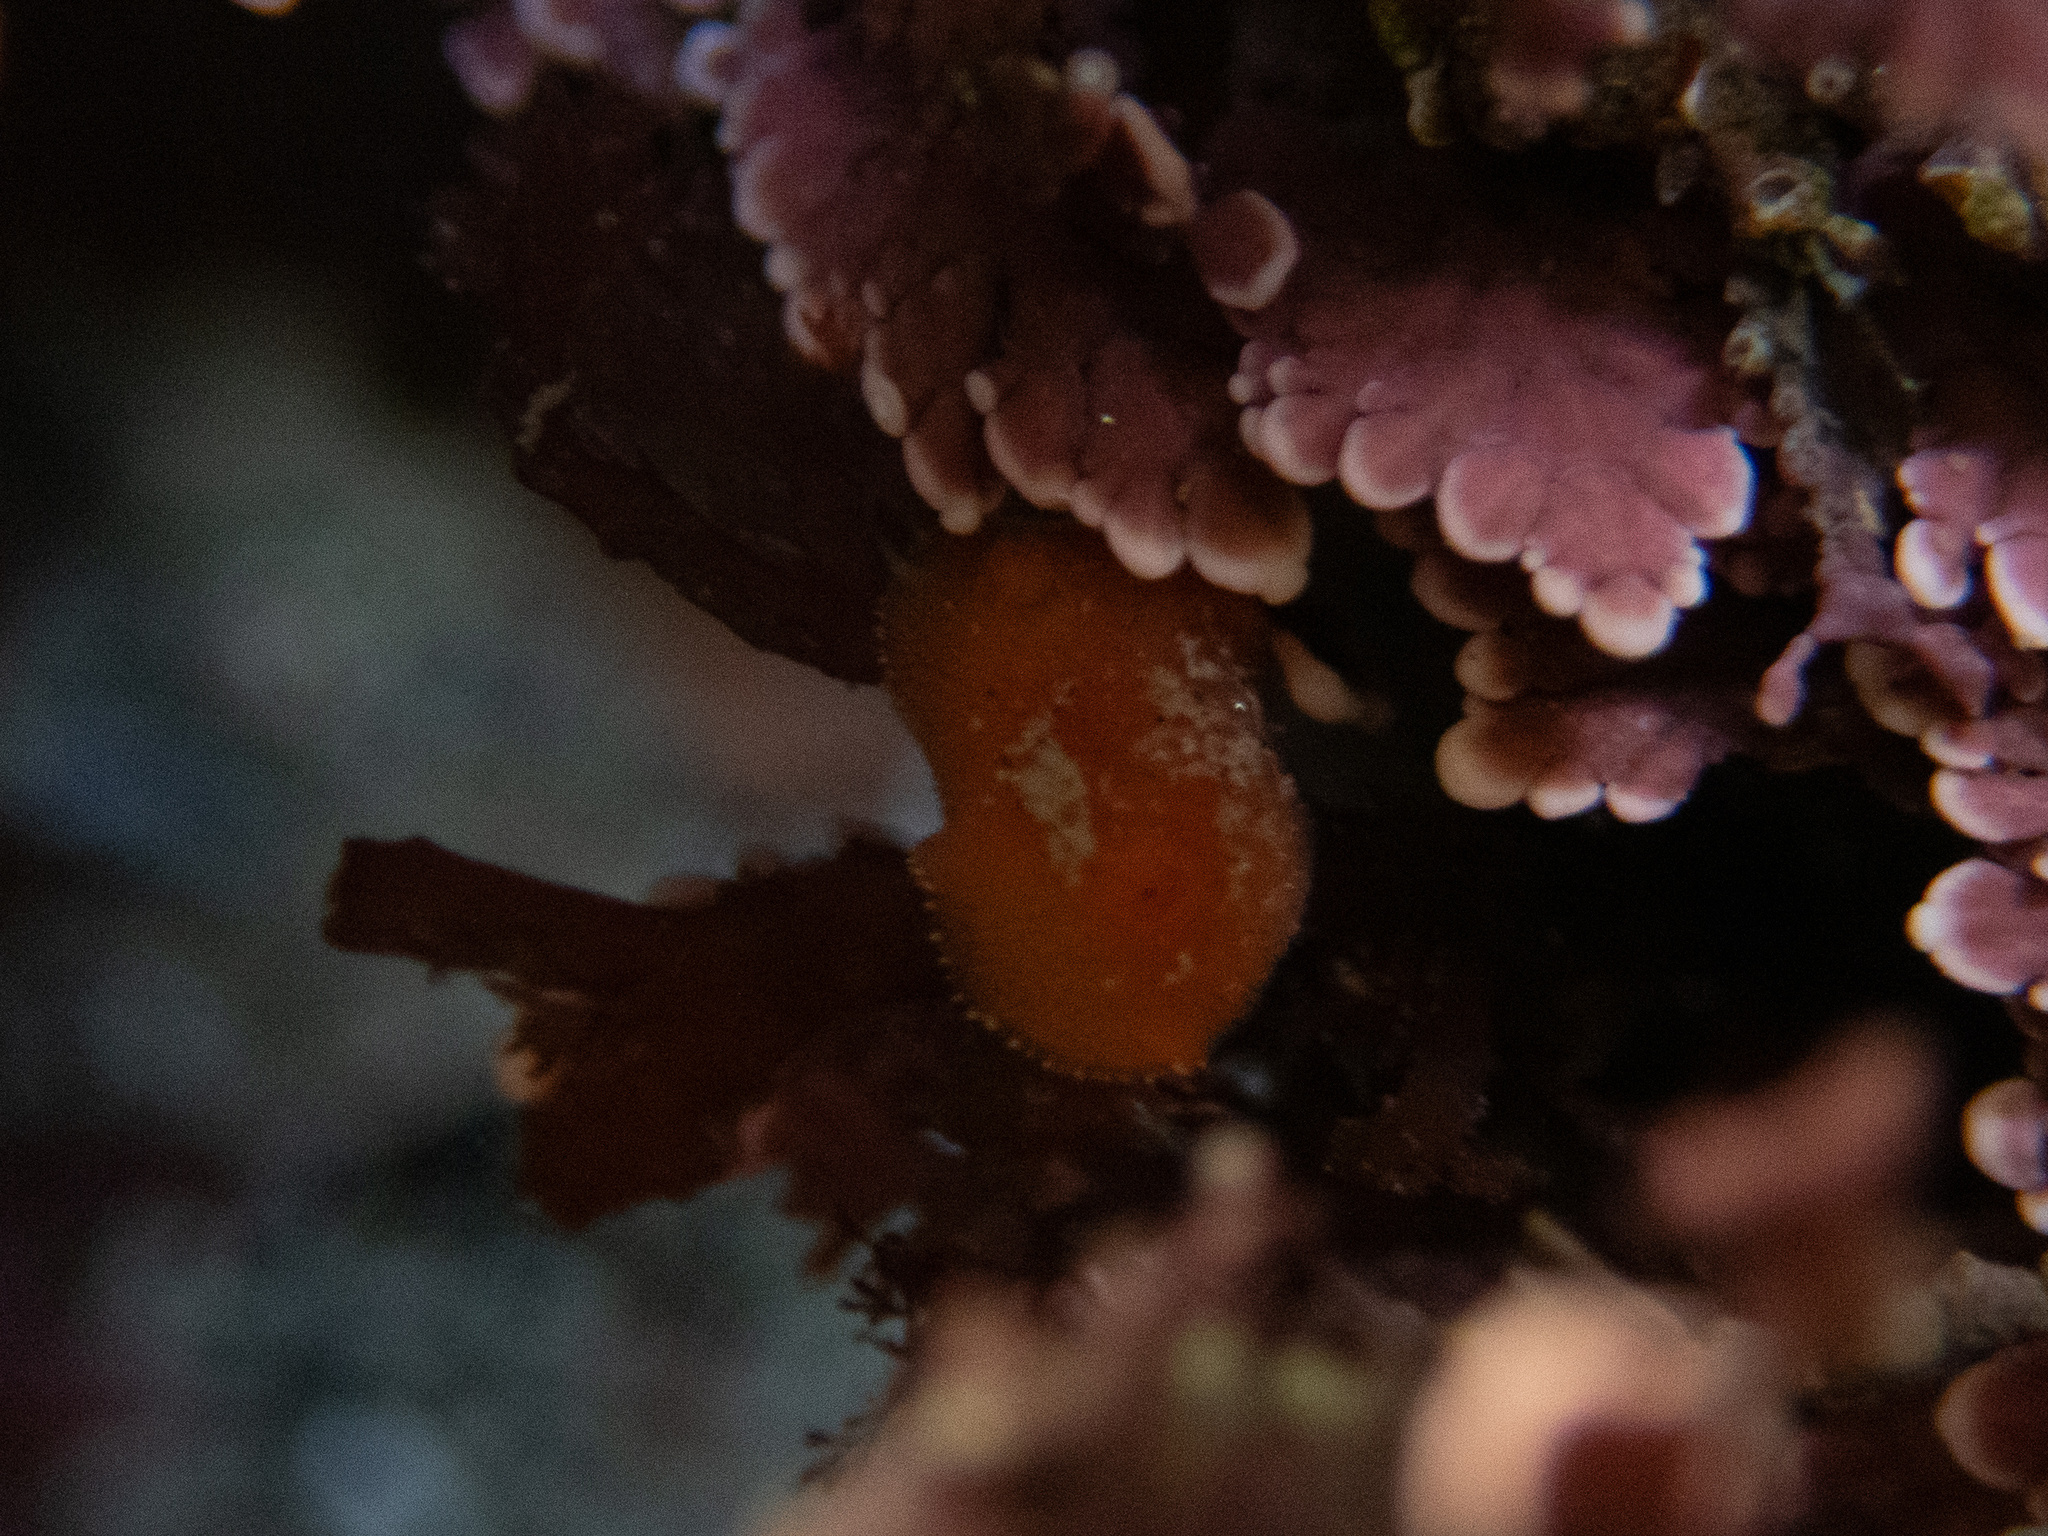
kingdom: Animalia
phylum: Mollusca
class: Gastropoda
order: Nudibranchia
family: Discodorididae
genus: Rostanga
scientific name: Rostanga pulchra
